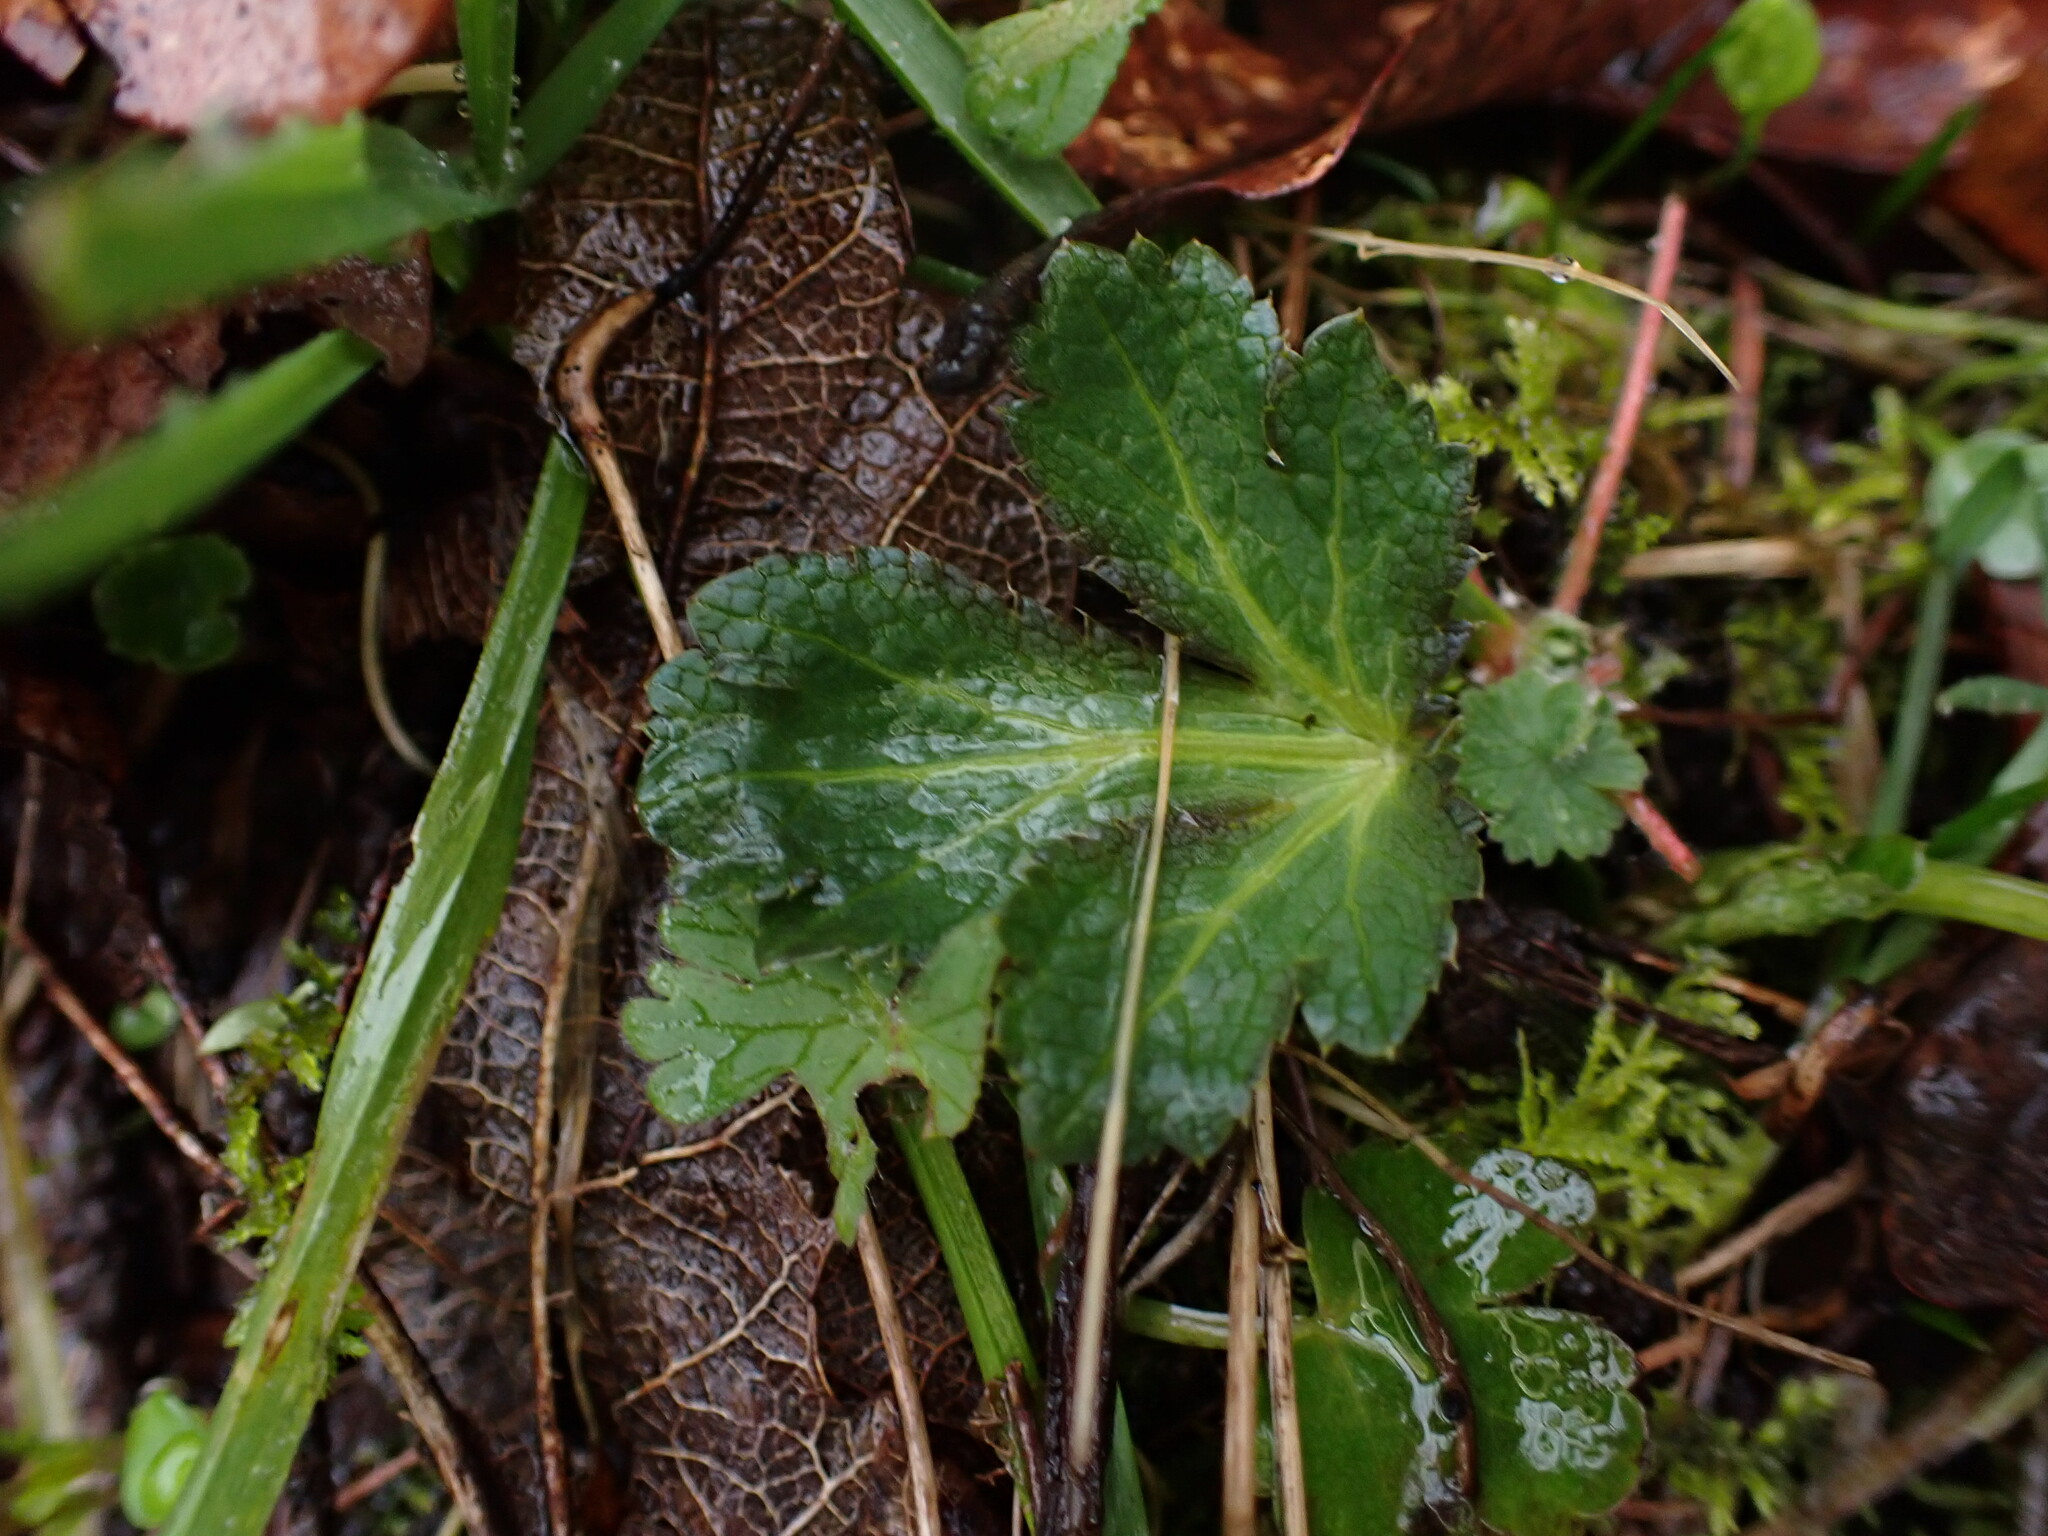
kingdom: Plantae
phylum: Tracheophyta
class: Magnoliopsida
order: Apiales
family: Apiaceae
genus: Sanicula
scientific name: Sanicula crassicaulis
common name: Western snakeroot
